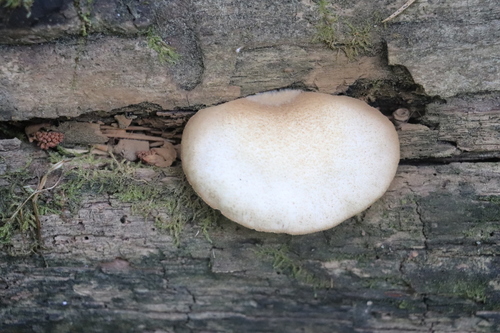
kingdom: Fungi
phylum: Basidiomycota
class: Agaricomycetes
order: Agaricales
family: Crepidotaceae
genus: Crepidotus
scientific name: Crepidotus applanatus
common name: Flat crep
